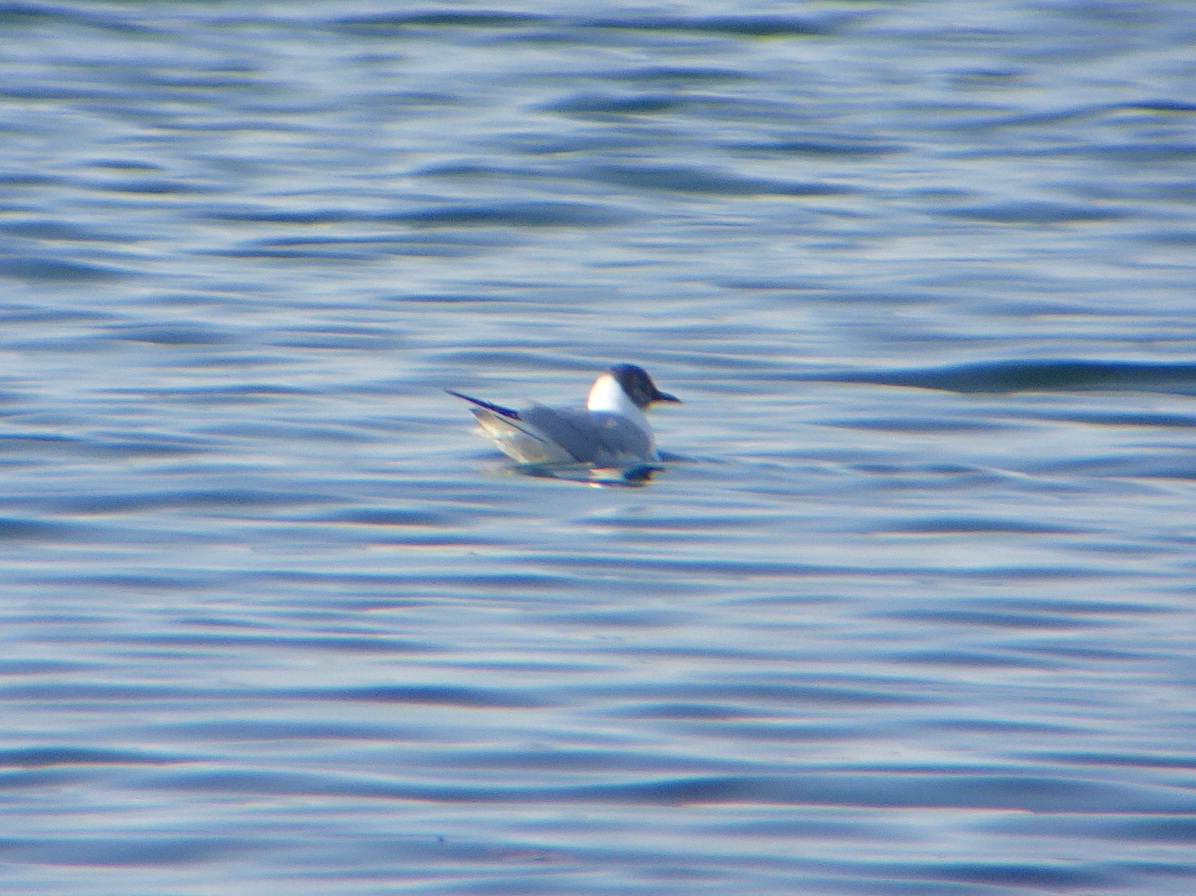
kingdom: Animalia
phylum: Chordata
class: Aves
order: Charadriiformes
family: Laridae
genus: Chroicocephalus
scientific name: Chroicocephalus philadelphia
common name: Bonaparte's gull
